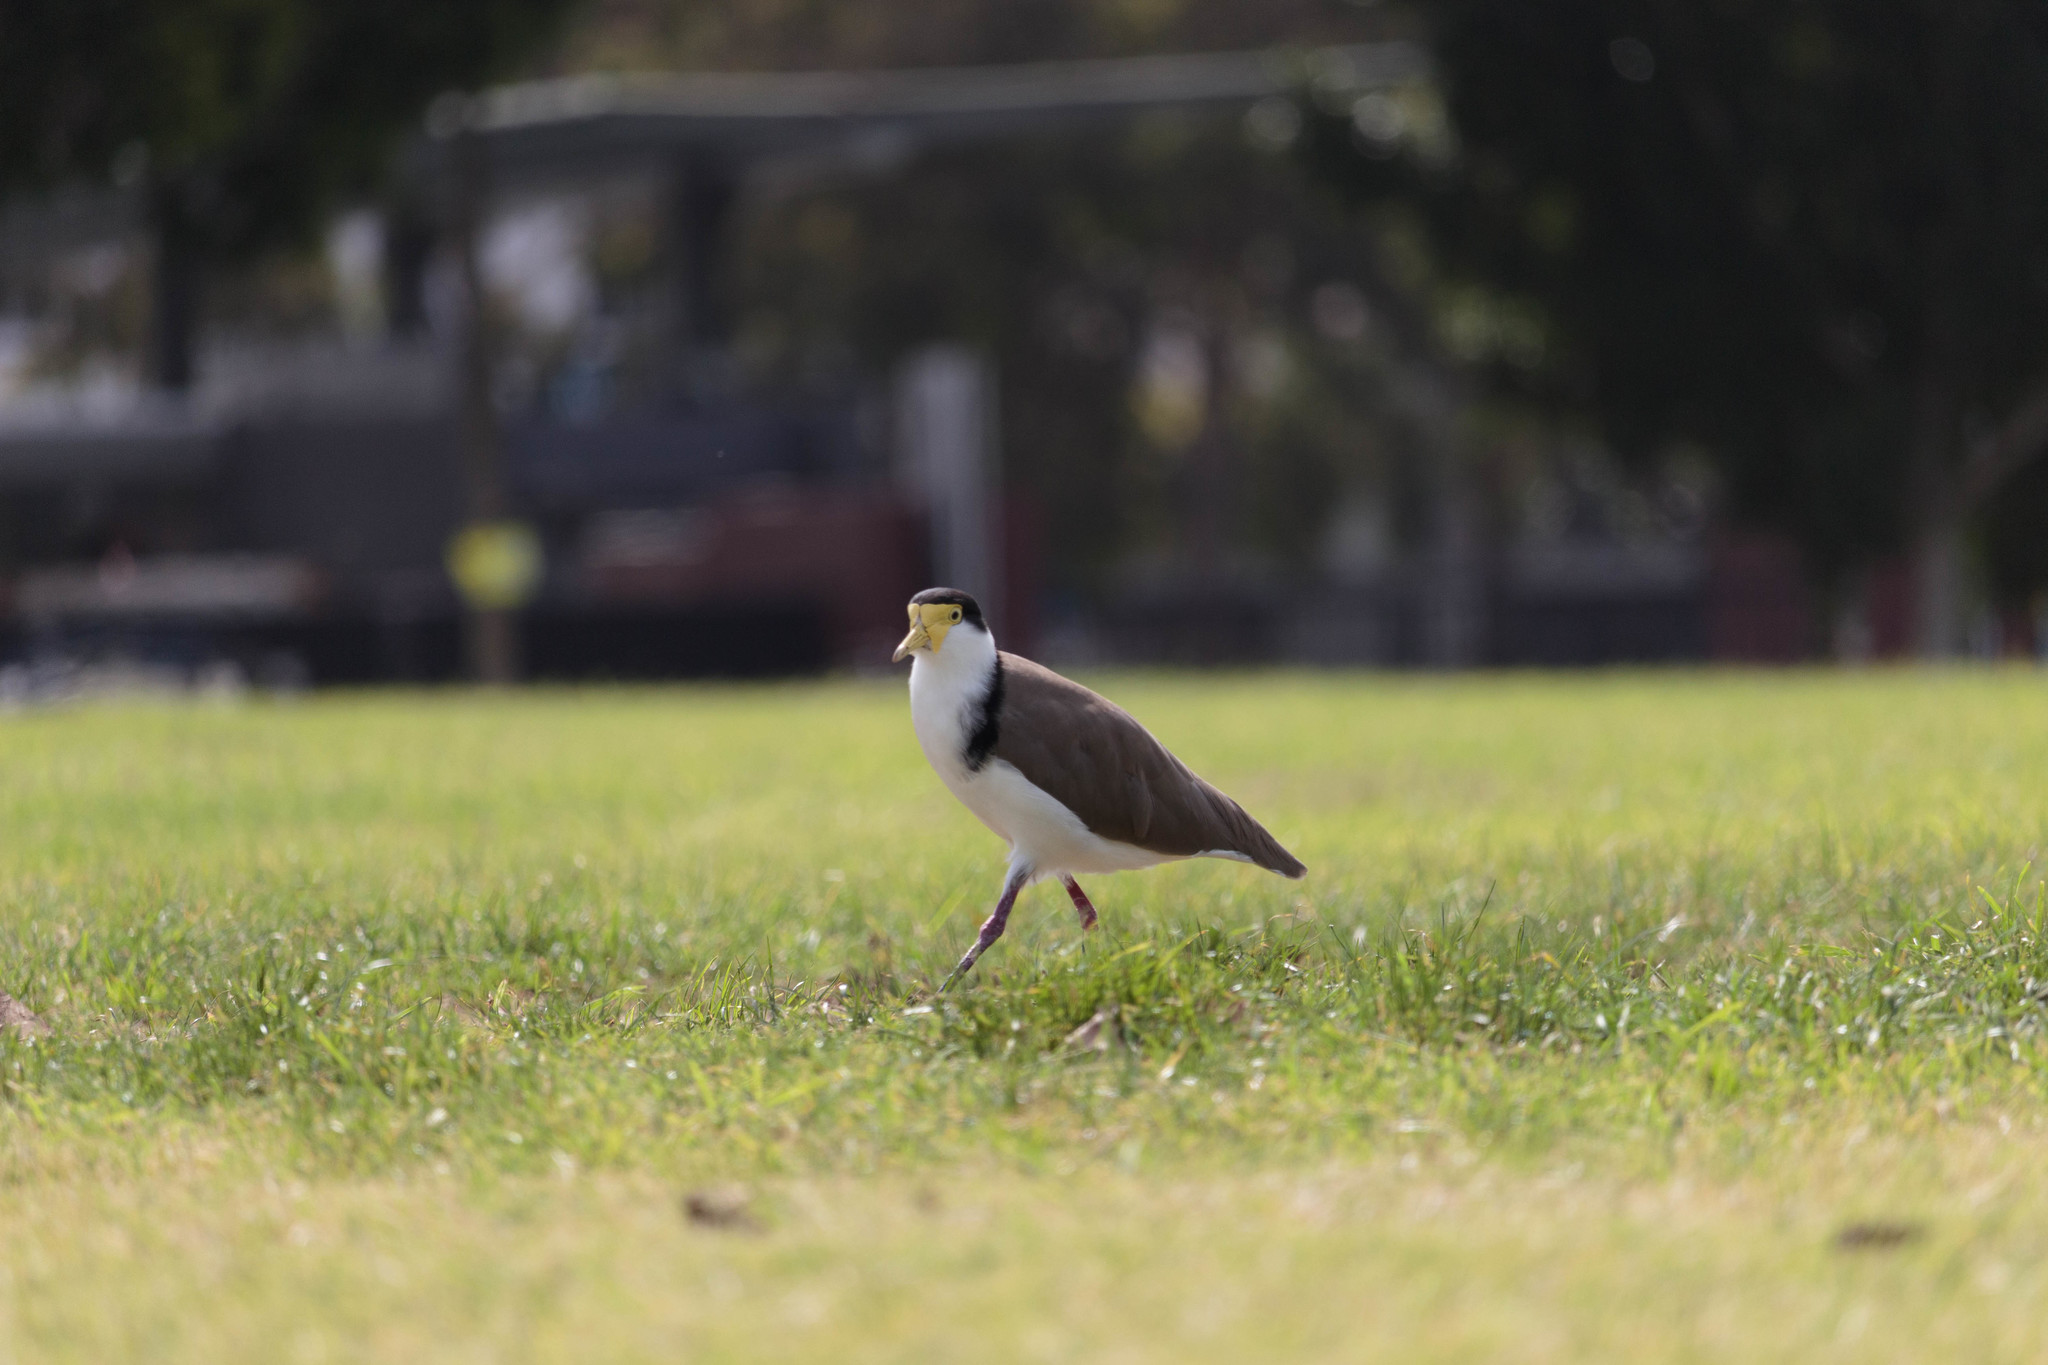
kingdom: Animalia
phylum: Chordata
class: Aves
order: Charadriiformes
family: Charadriidae
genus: Vanellus
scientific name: Vanellus miles
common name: Masked lapwing
